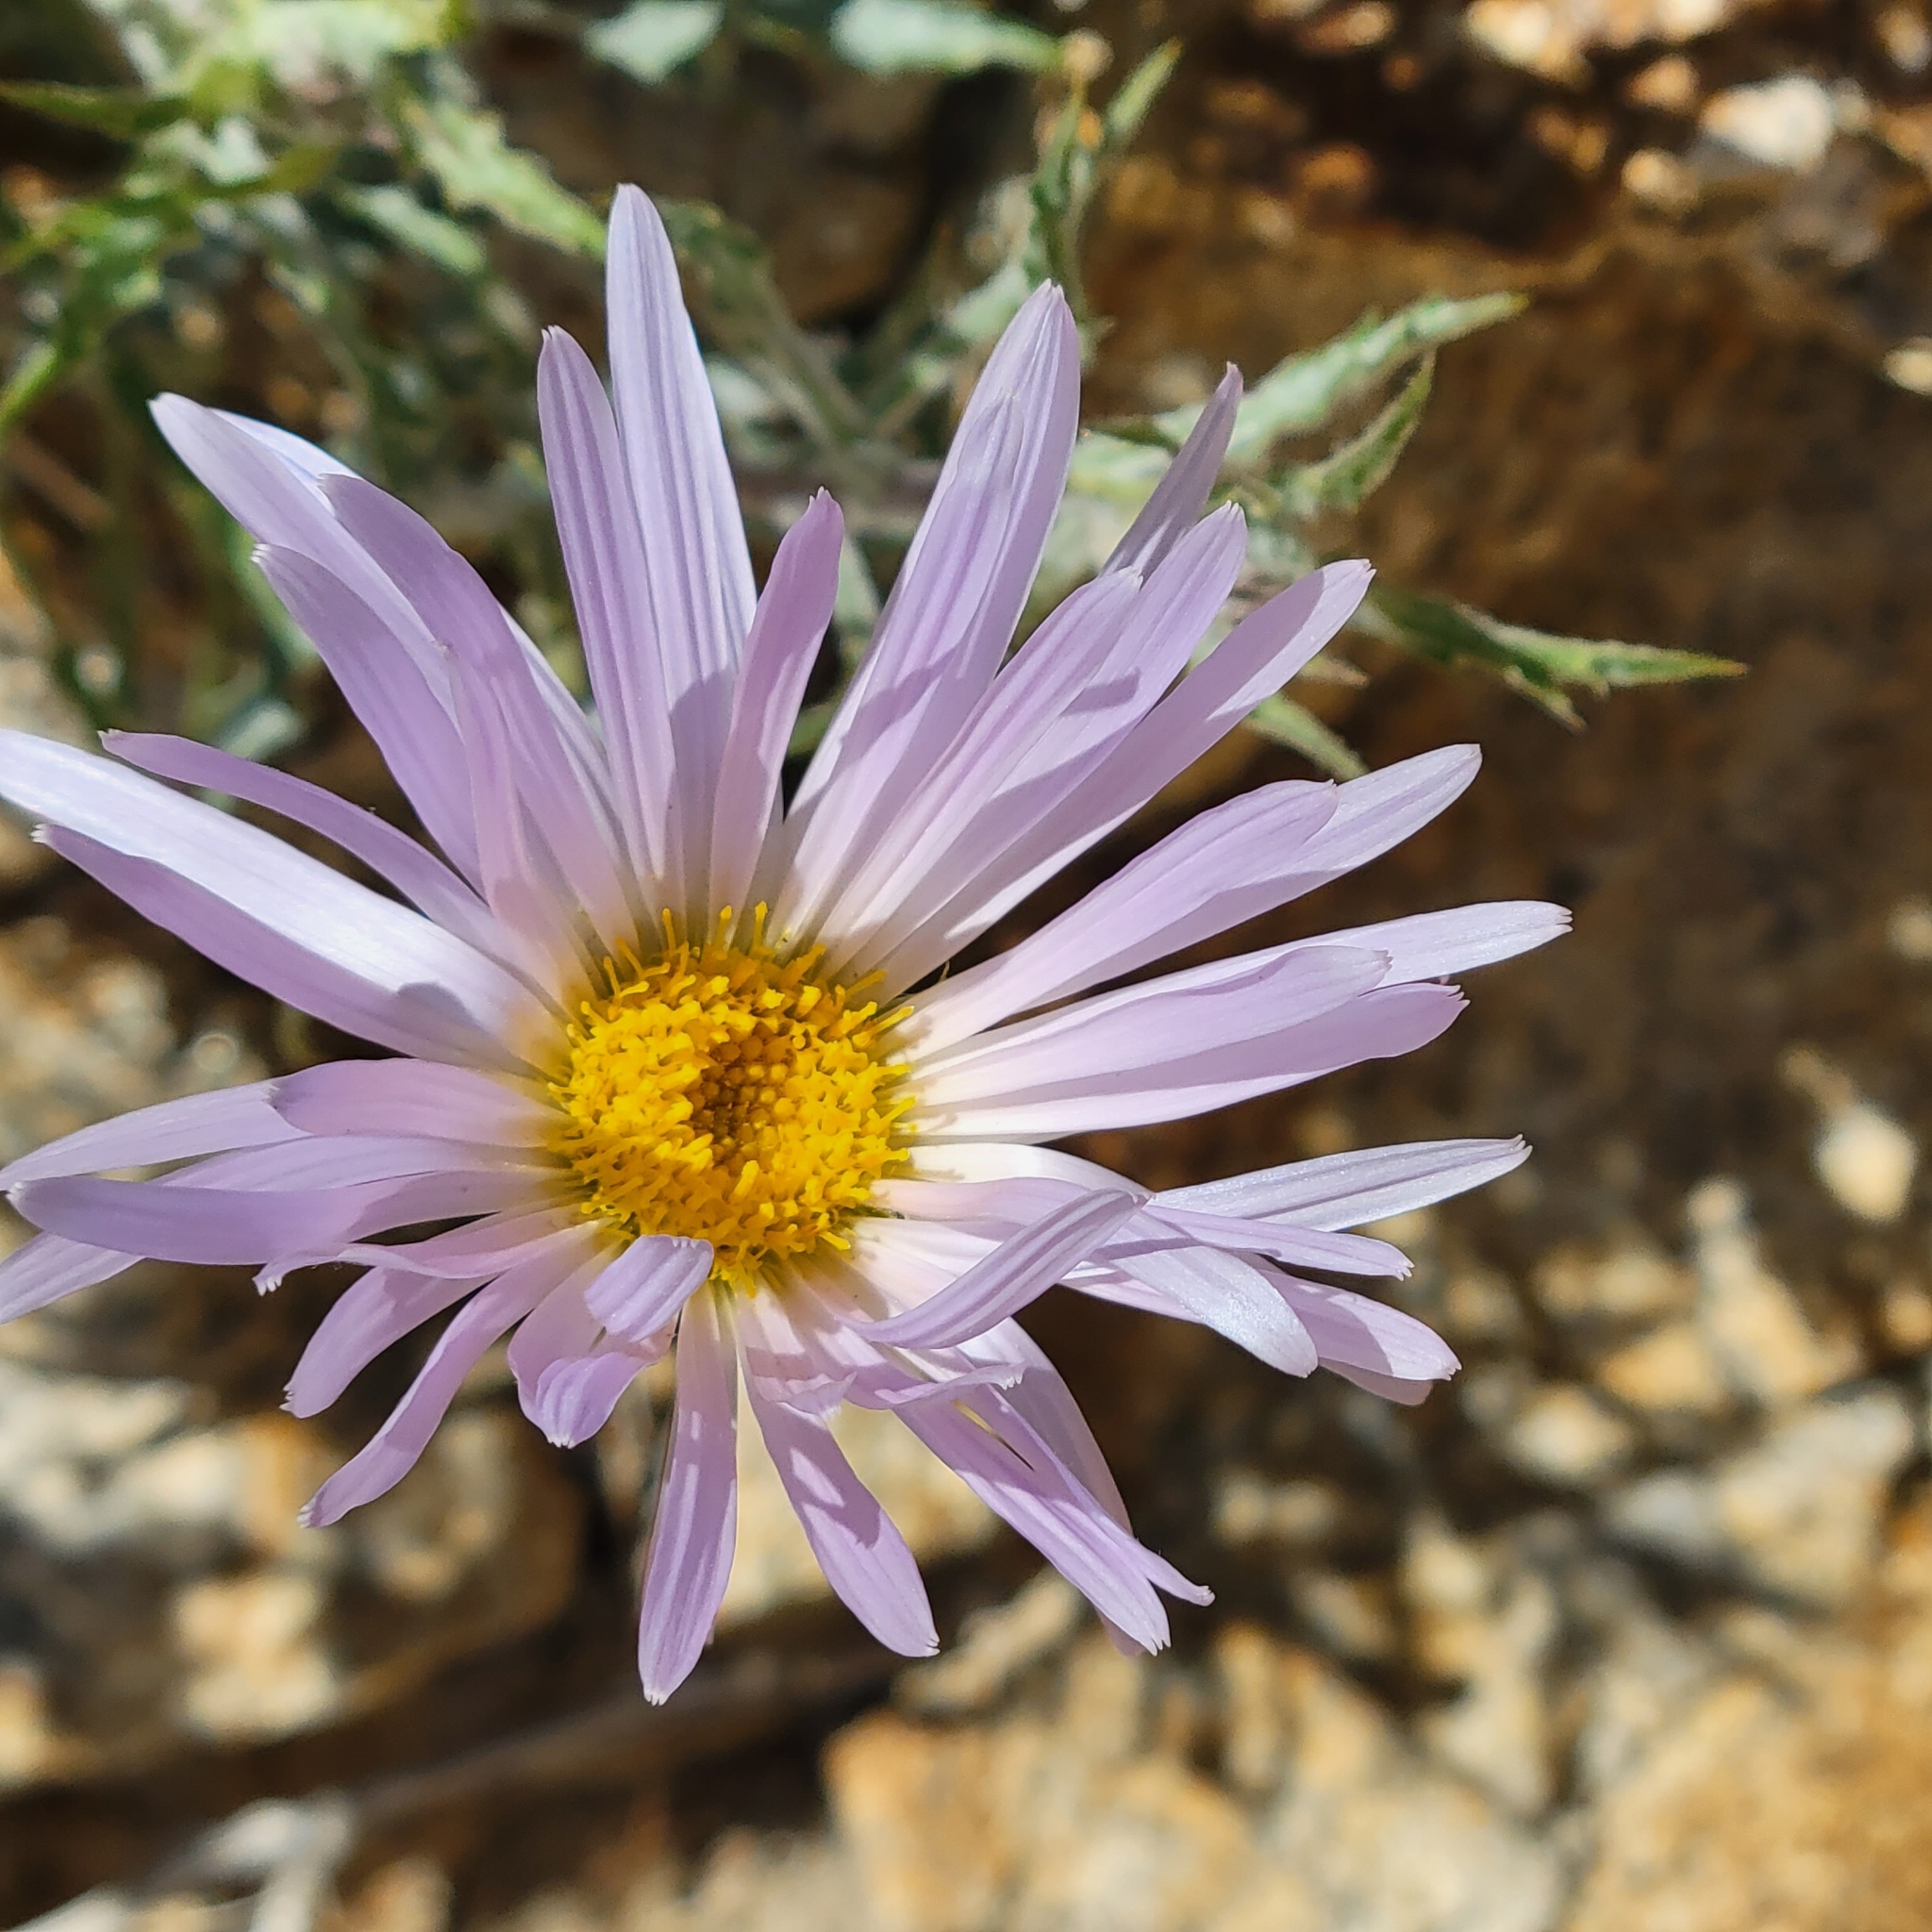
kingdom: Plantae
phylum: Tracheophyta
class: Magnoliopsida
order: Asterales
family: Asteraceae
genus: Xylorhiza
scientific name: Xylorhiza tortifolia
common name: Hurt-leaf woody-aster
